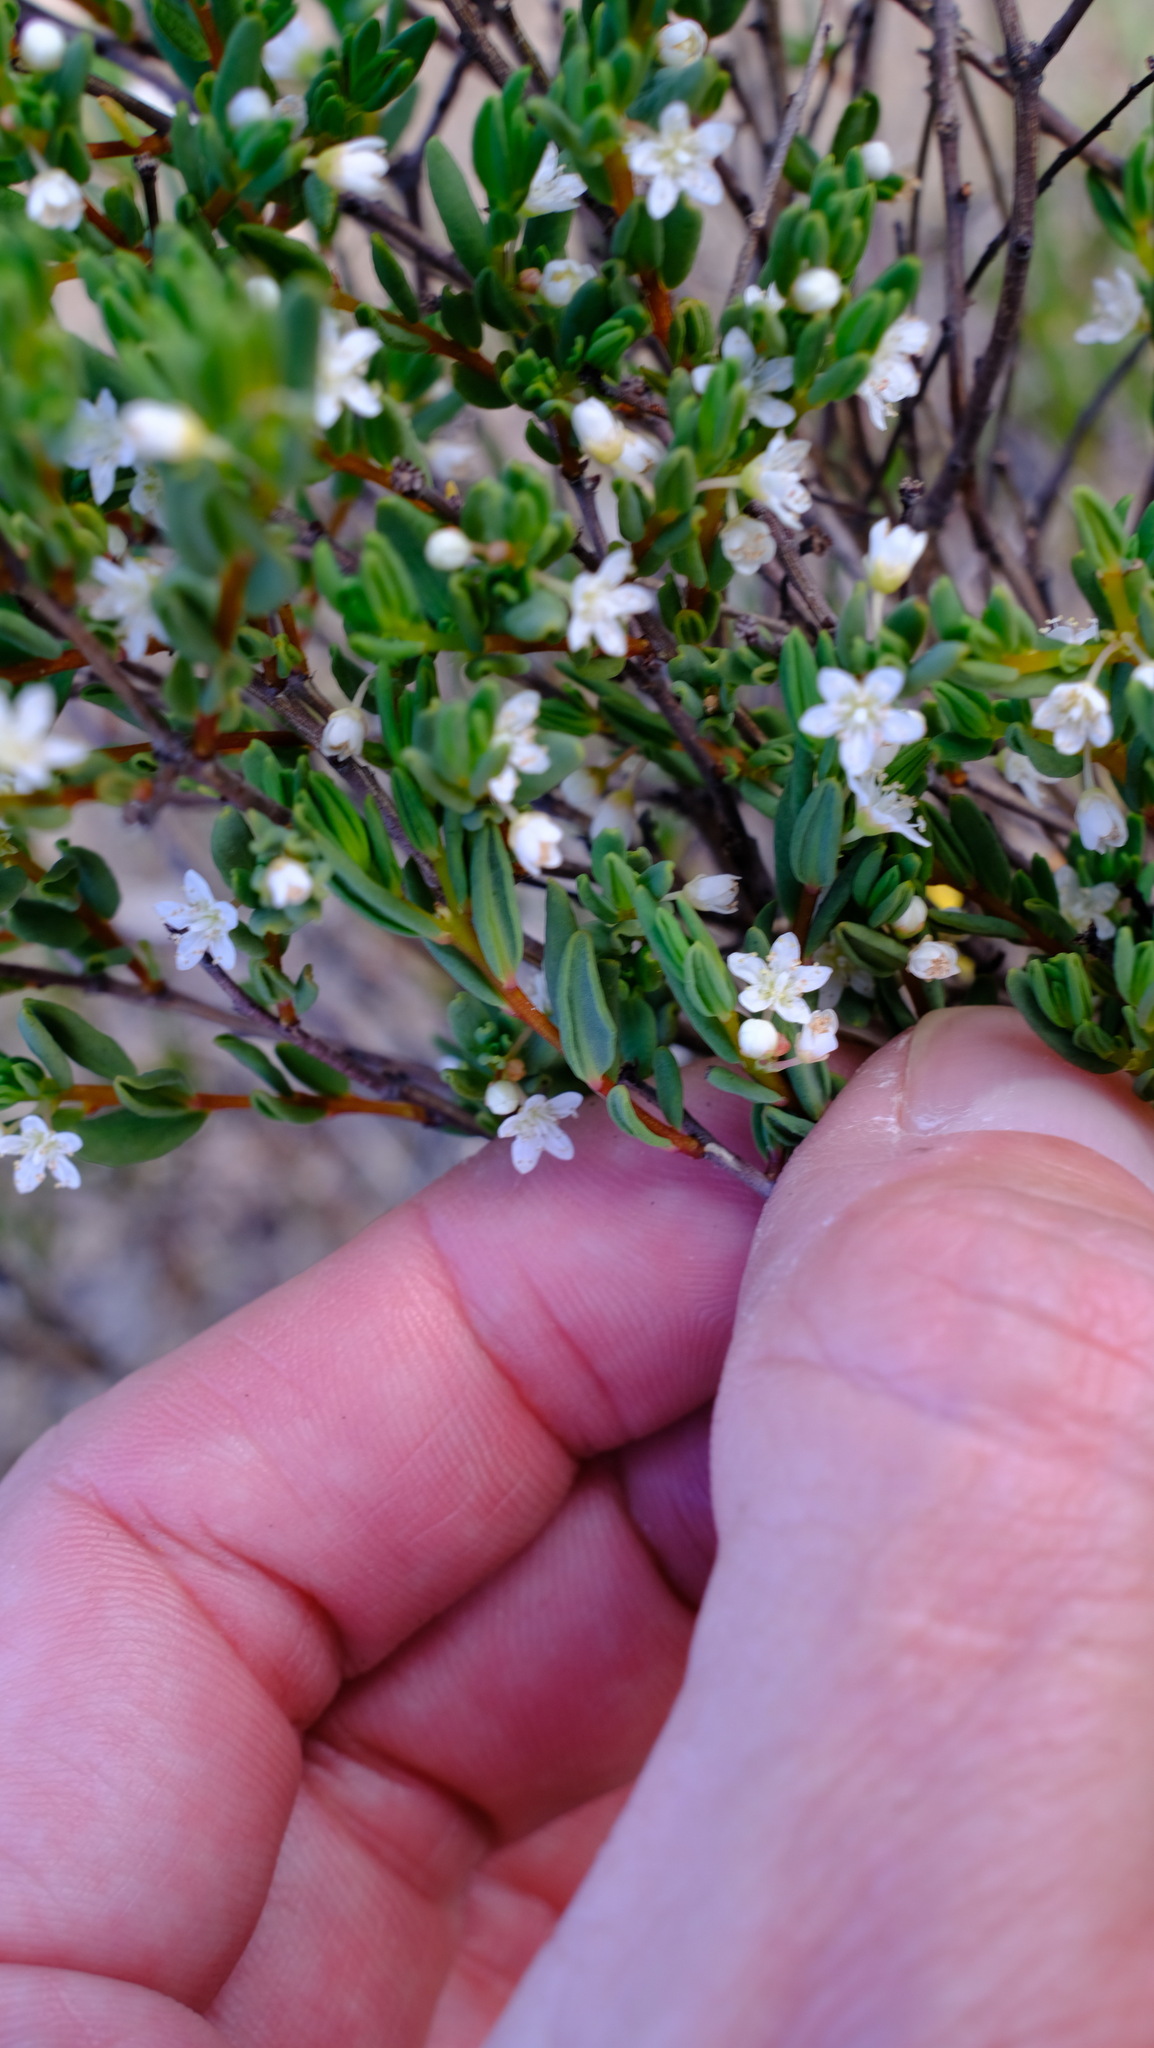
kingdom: Plantae
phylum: Tracheophyta
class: Magnoliopsida
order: Malpighiales
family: Euphorbiaceae
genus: Monotaxis
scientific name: Monotaxis bracteata
